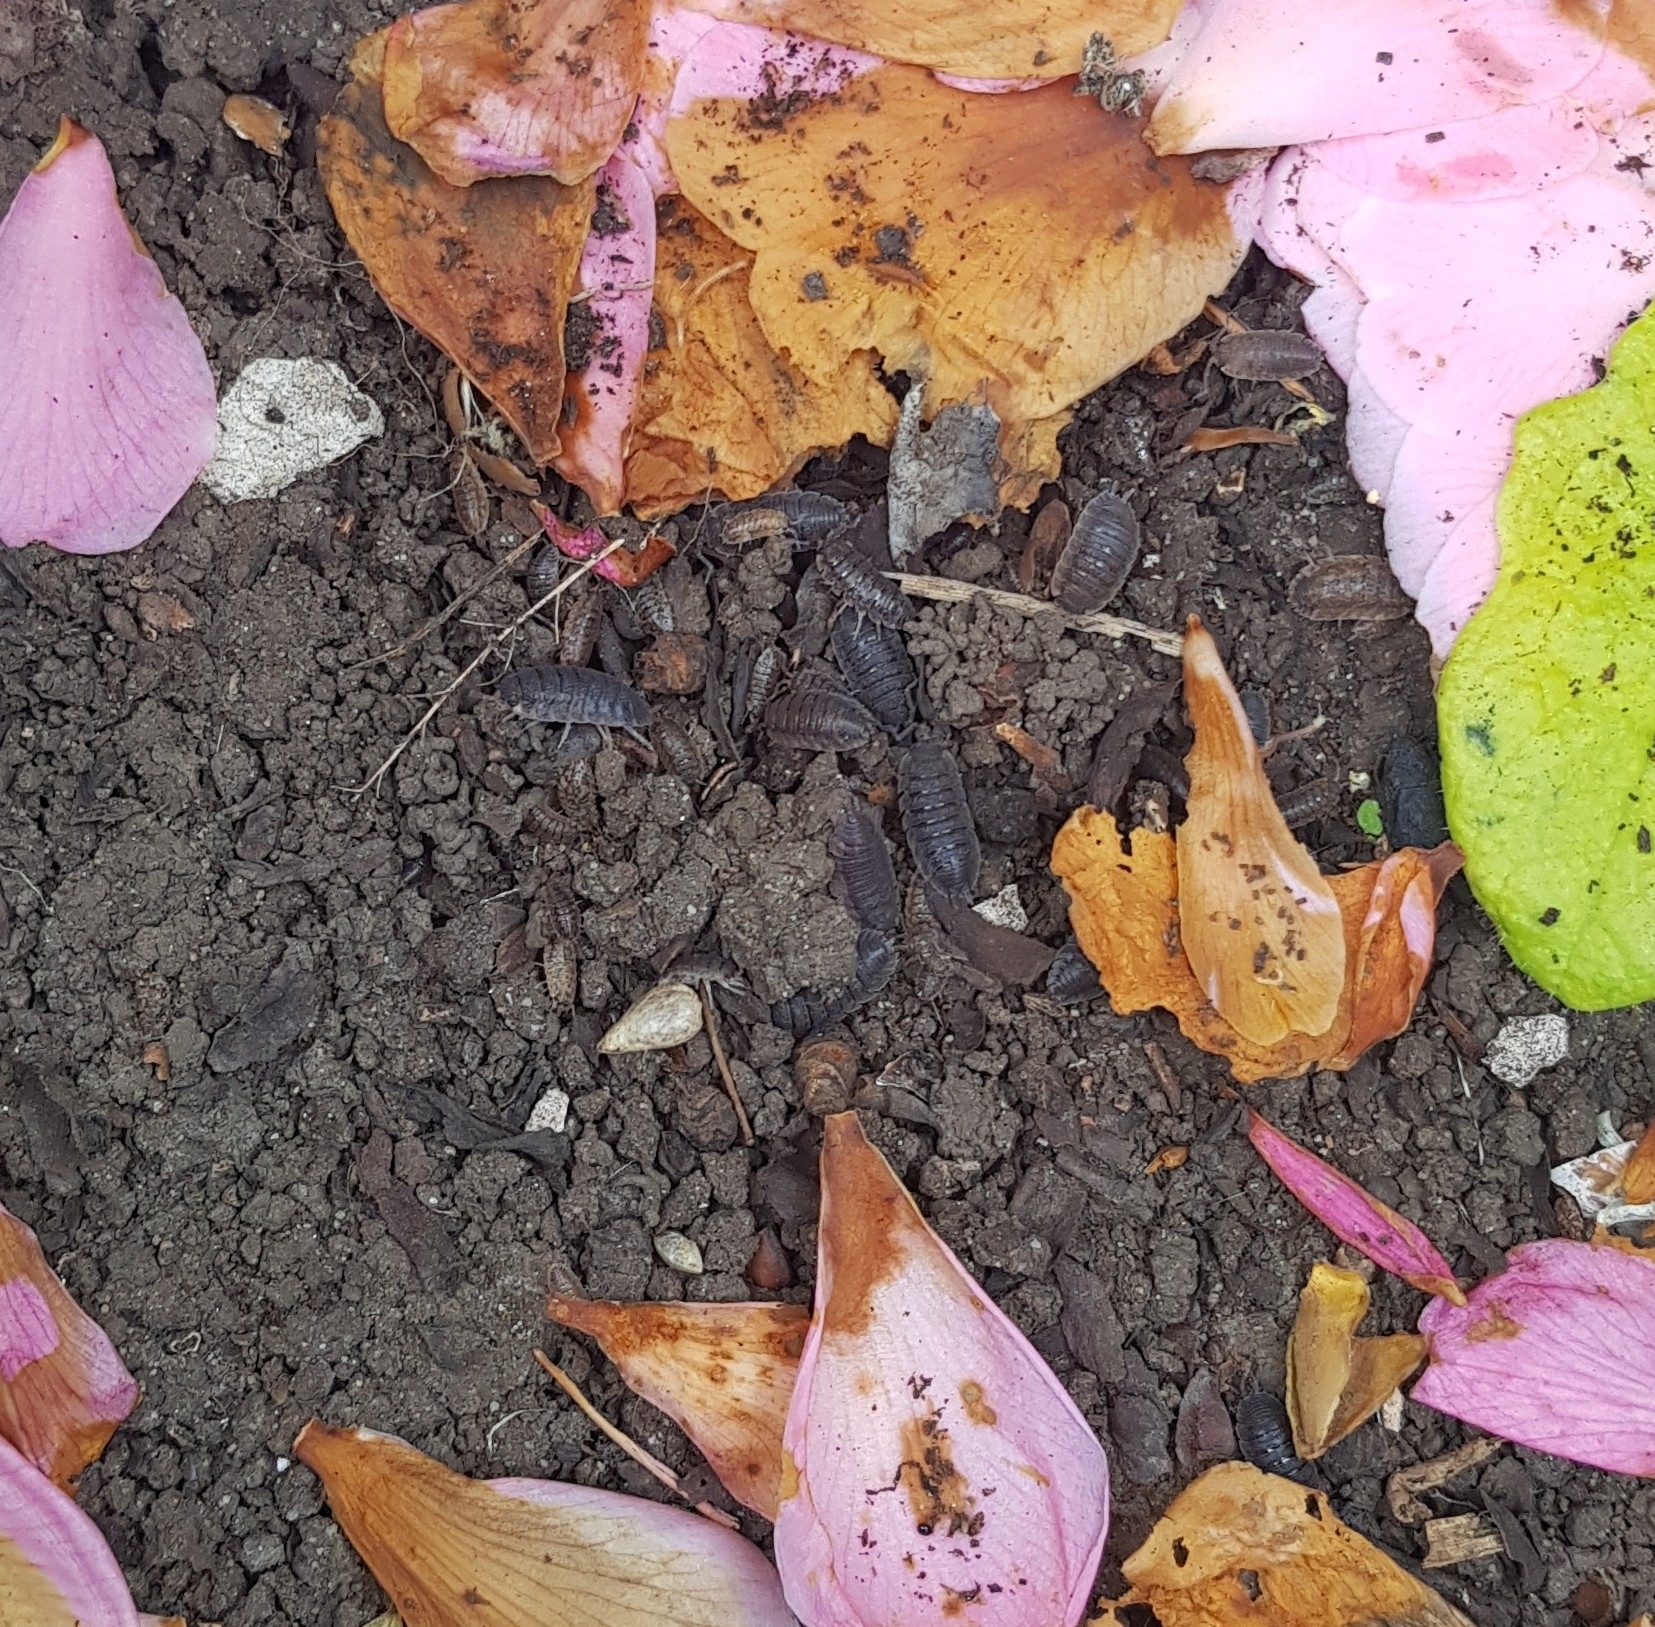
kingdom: Animalia
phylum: Arthropoda
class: Malacostraca
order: Isopoda
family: Porcellionidae
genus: Porcellio
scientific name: Porcellio scaber
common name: Common rough woodlouse
